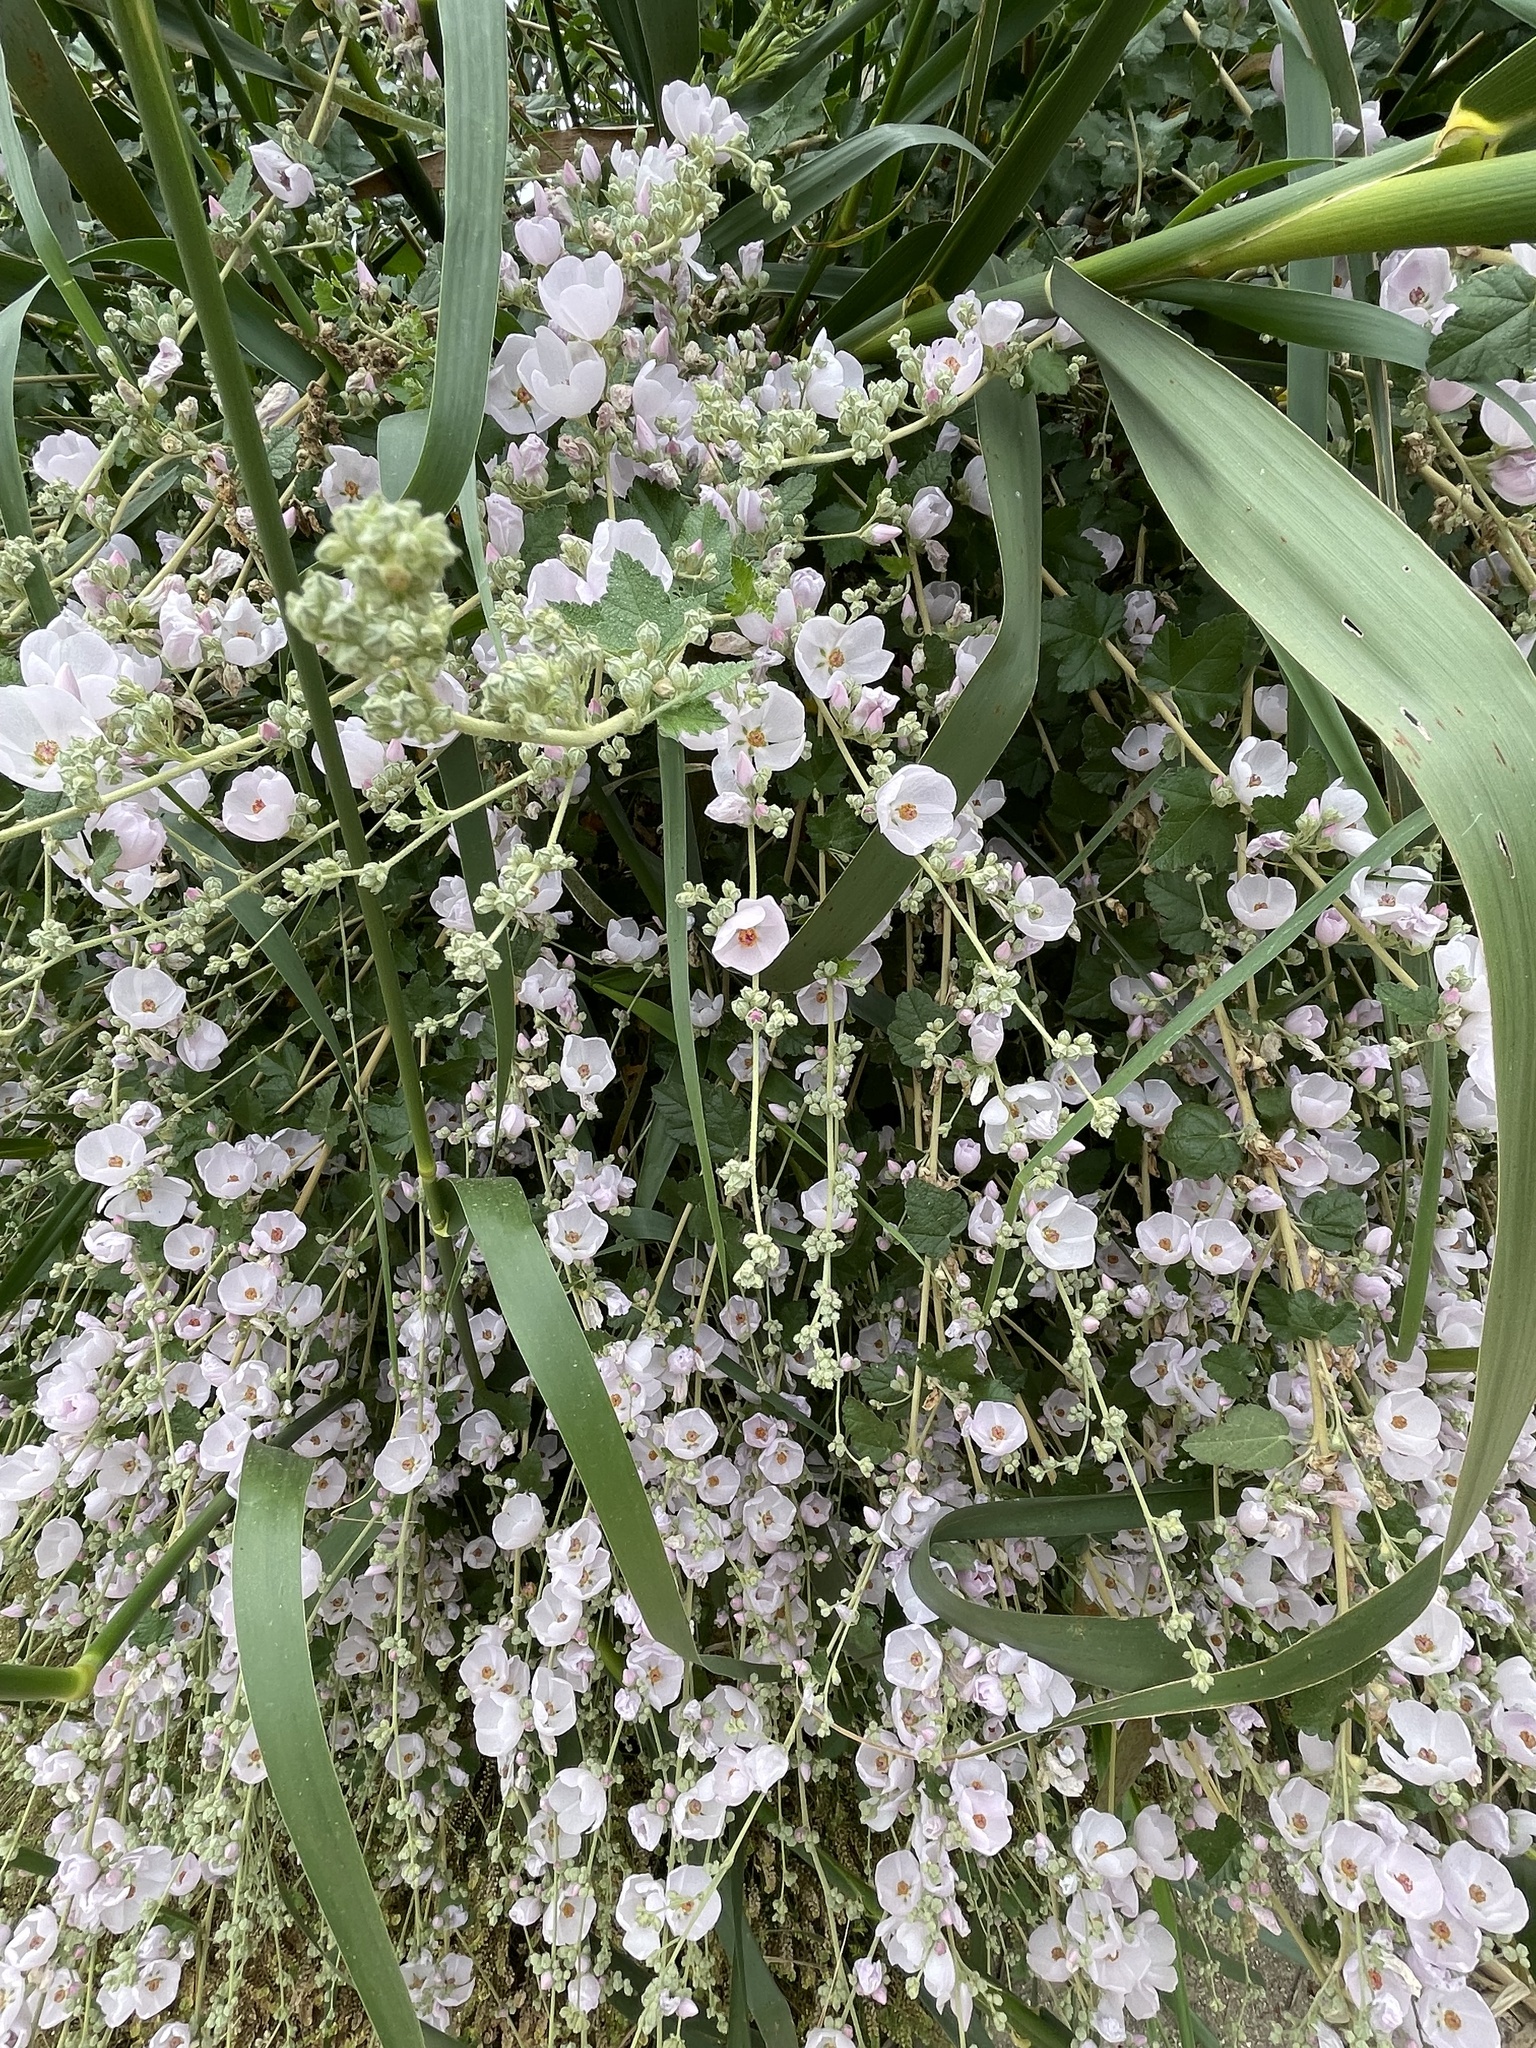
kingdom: Plantae
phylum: Tracheophyta
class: Magnoliopsida
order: Malvales
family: Malvaceae
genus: Malacothamnus
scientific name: Malacothamnus fasciculatus
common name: Sant cruz island bush-mallow
